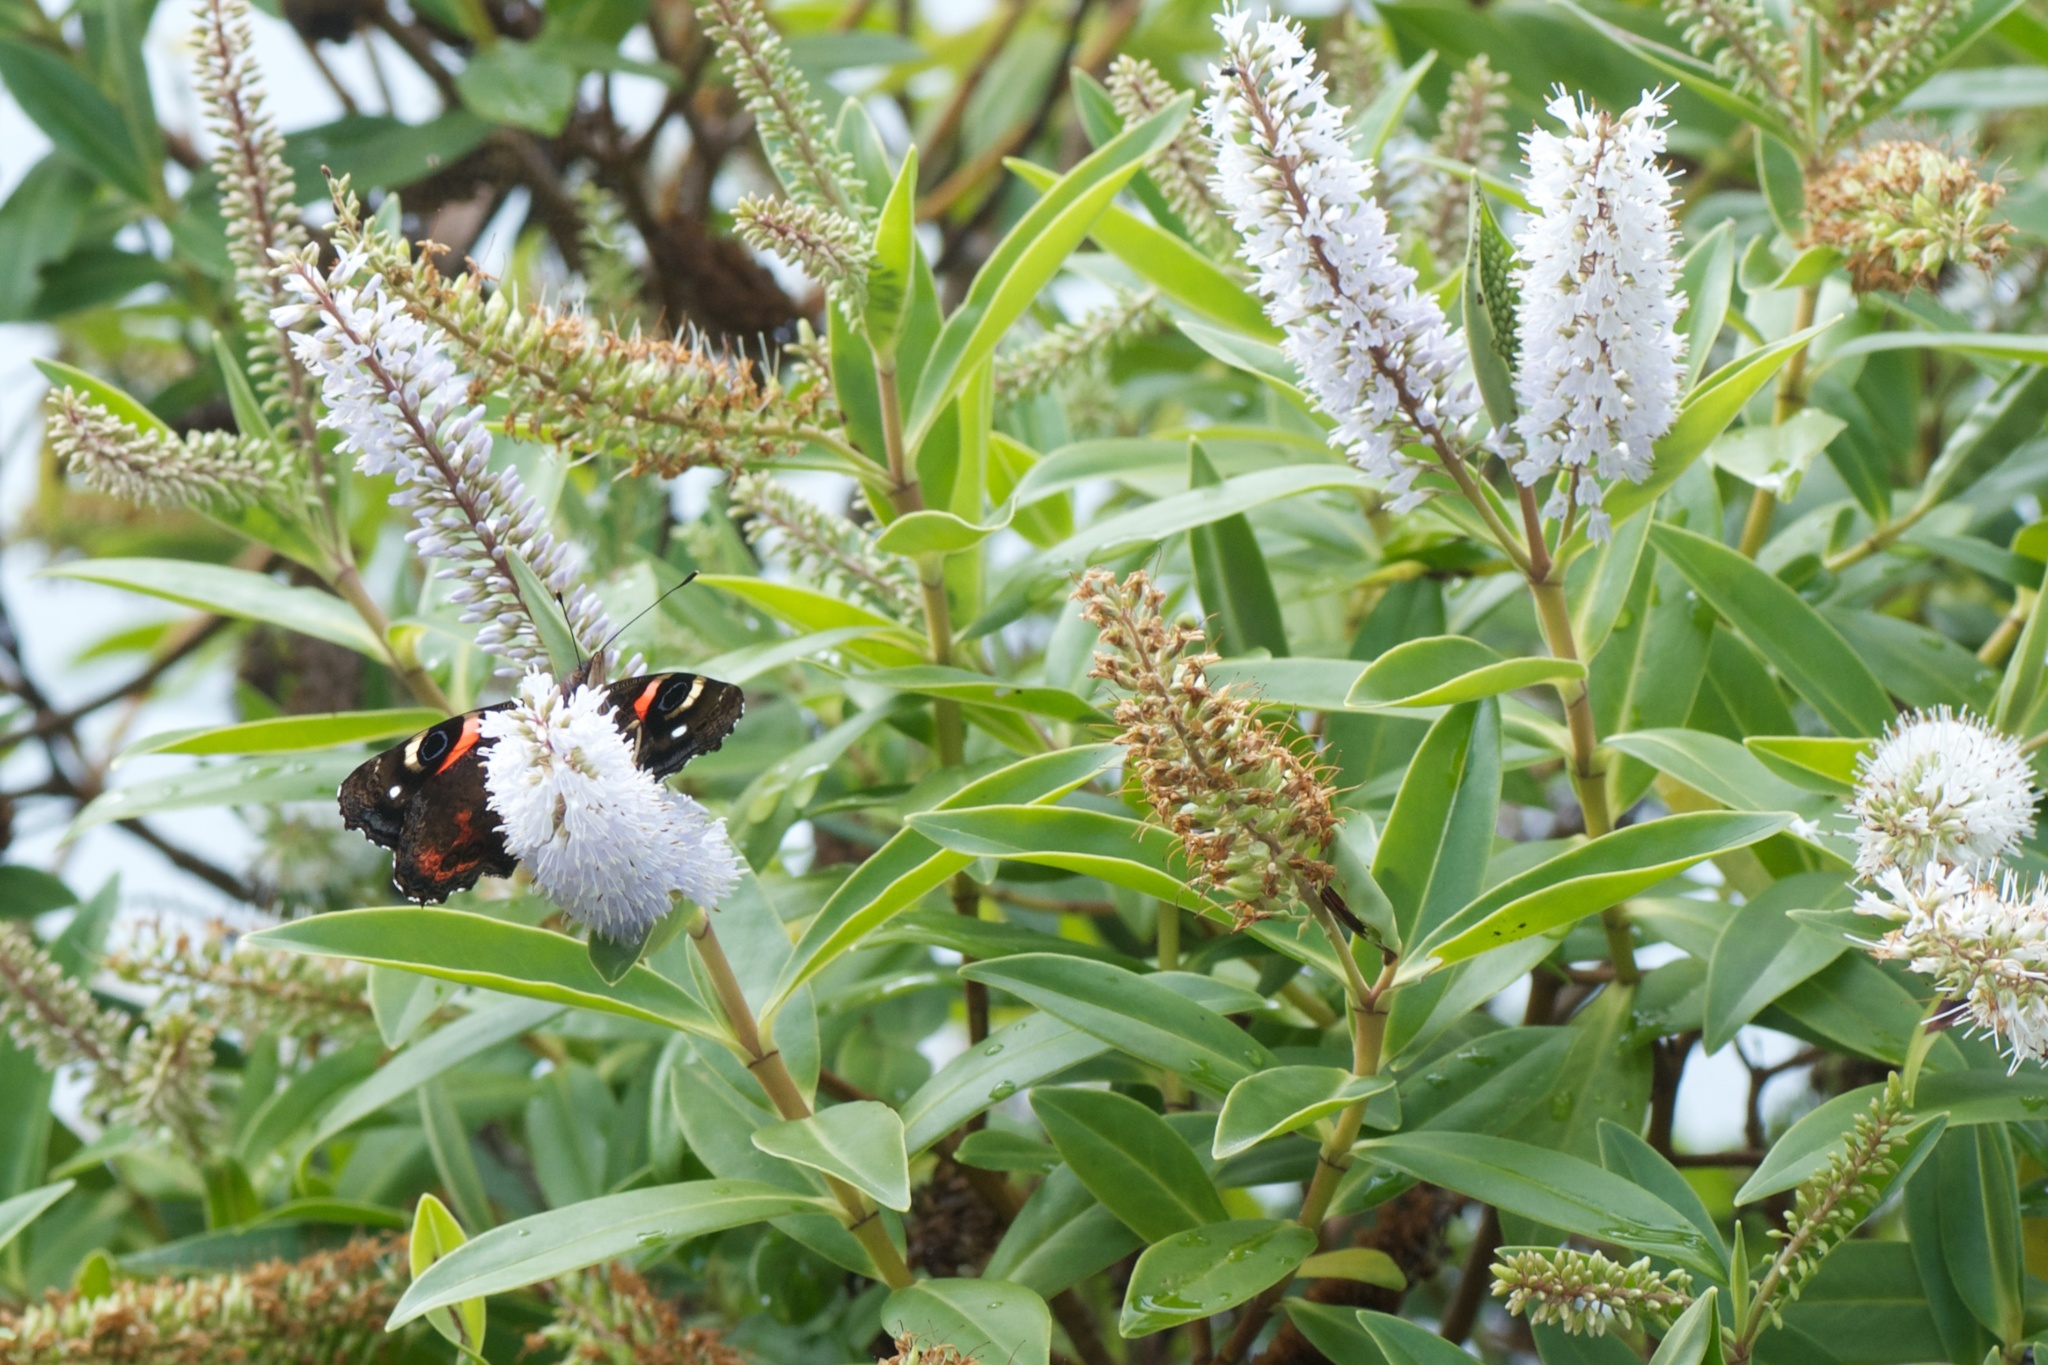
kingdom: Animalia
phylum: Arthropoda
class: Insecta
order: Lepidoptera
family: Nymphalidae
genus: Vanessa
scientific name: Vanessa gonerilla
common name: New zealand red admiral
